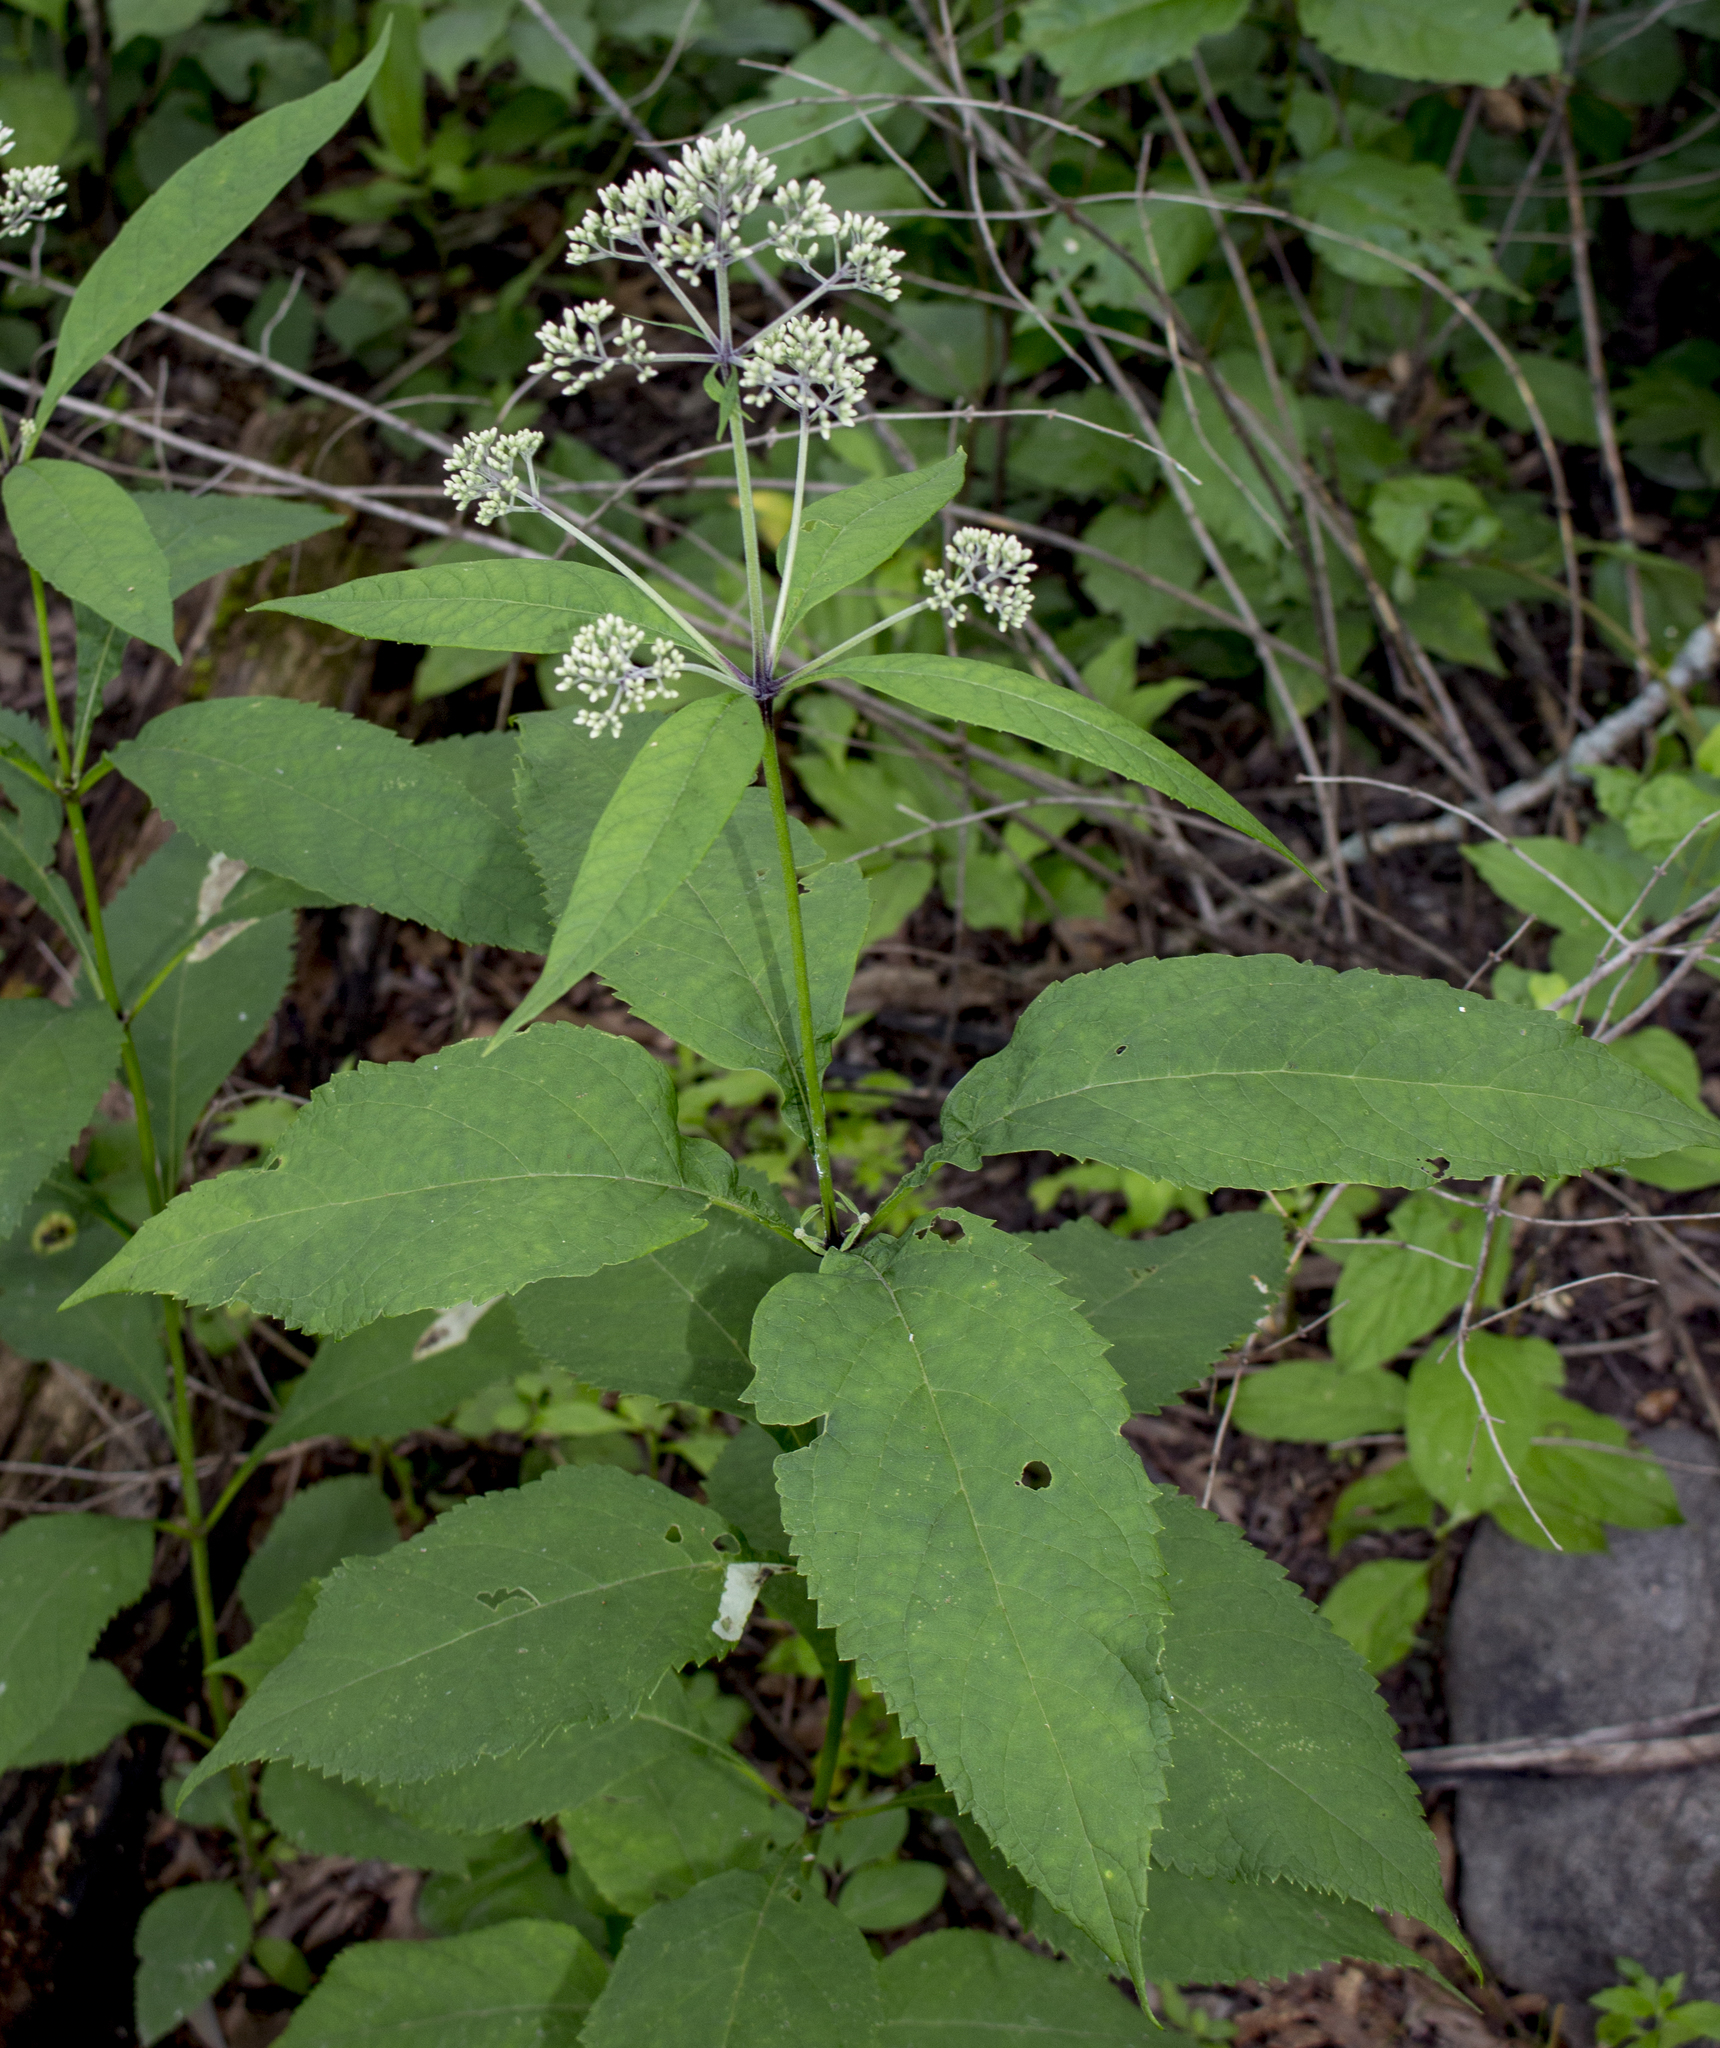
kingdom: Plantae
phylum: Tracheophyta
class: Magnoliopsida
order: Asterales
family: Asteraceae
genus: Eutrochium
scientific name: Eutrochium purpureum
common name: Gravelroot
